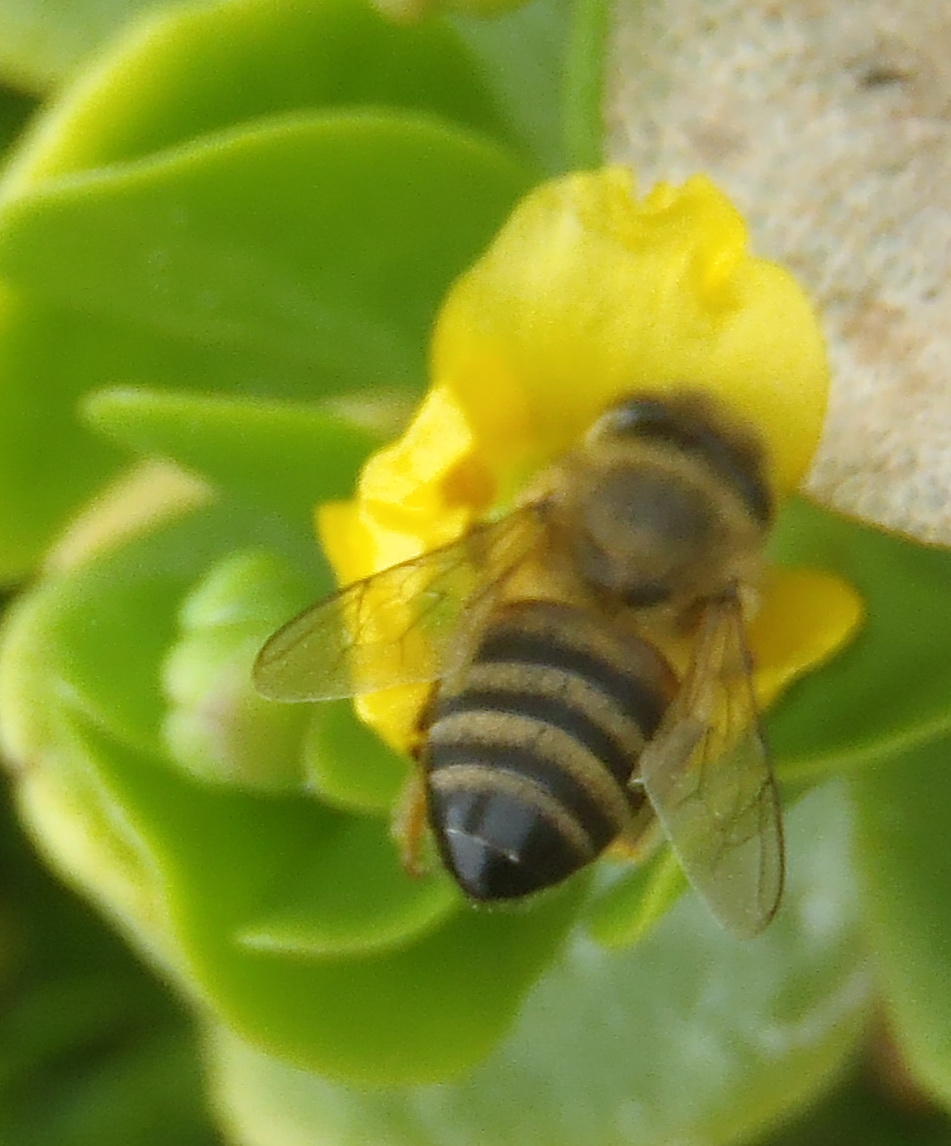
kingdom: Animalia
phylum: Arthropoda
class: Insecta
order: Hymenoptera
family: Apidae
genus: Apis
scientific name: Apis mellifera
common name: Honey bee
